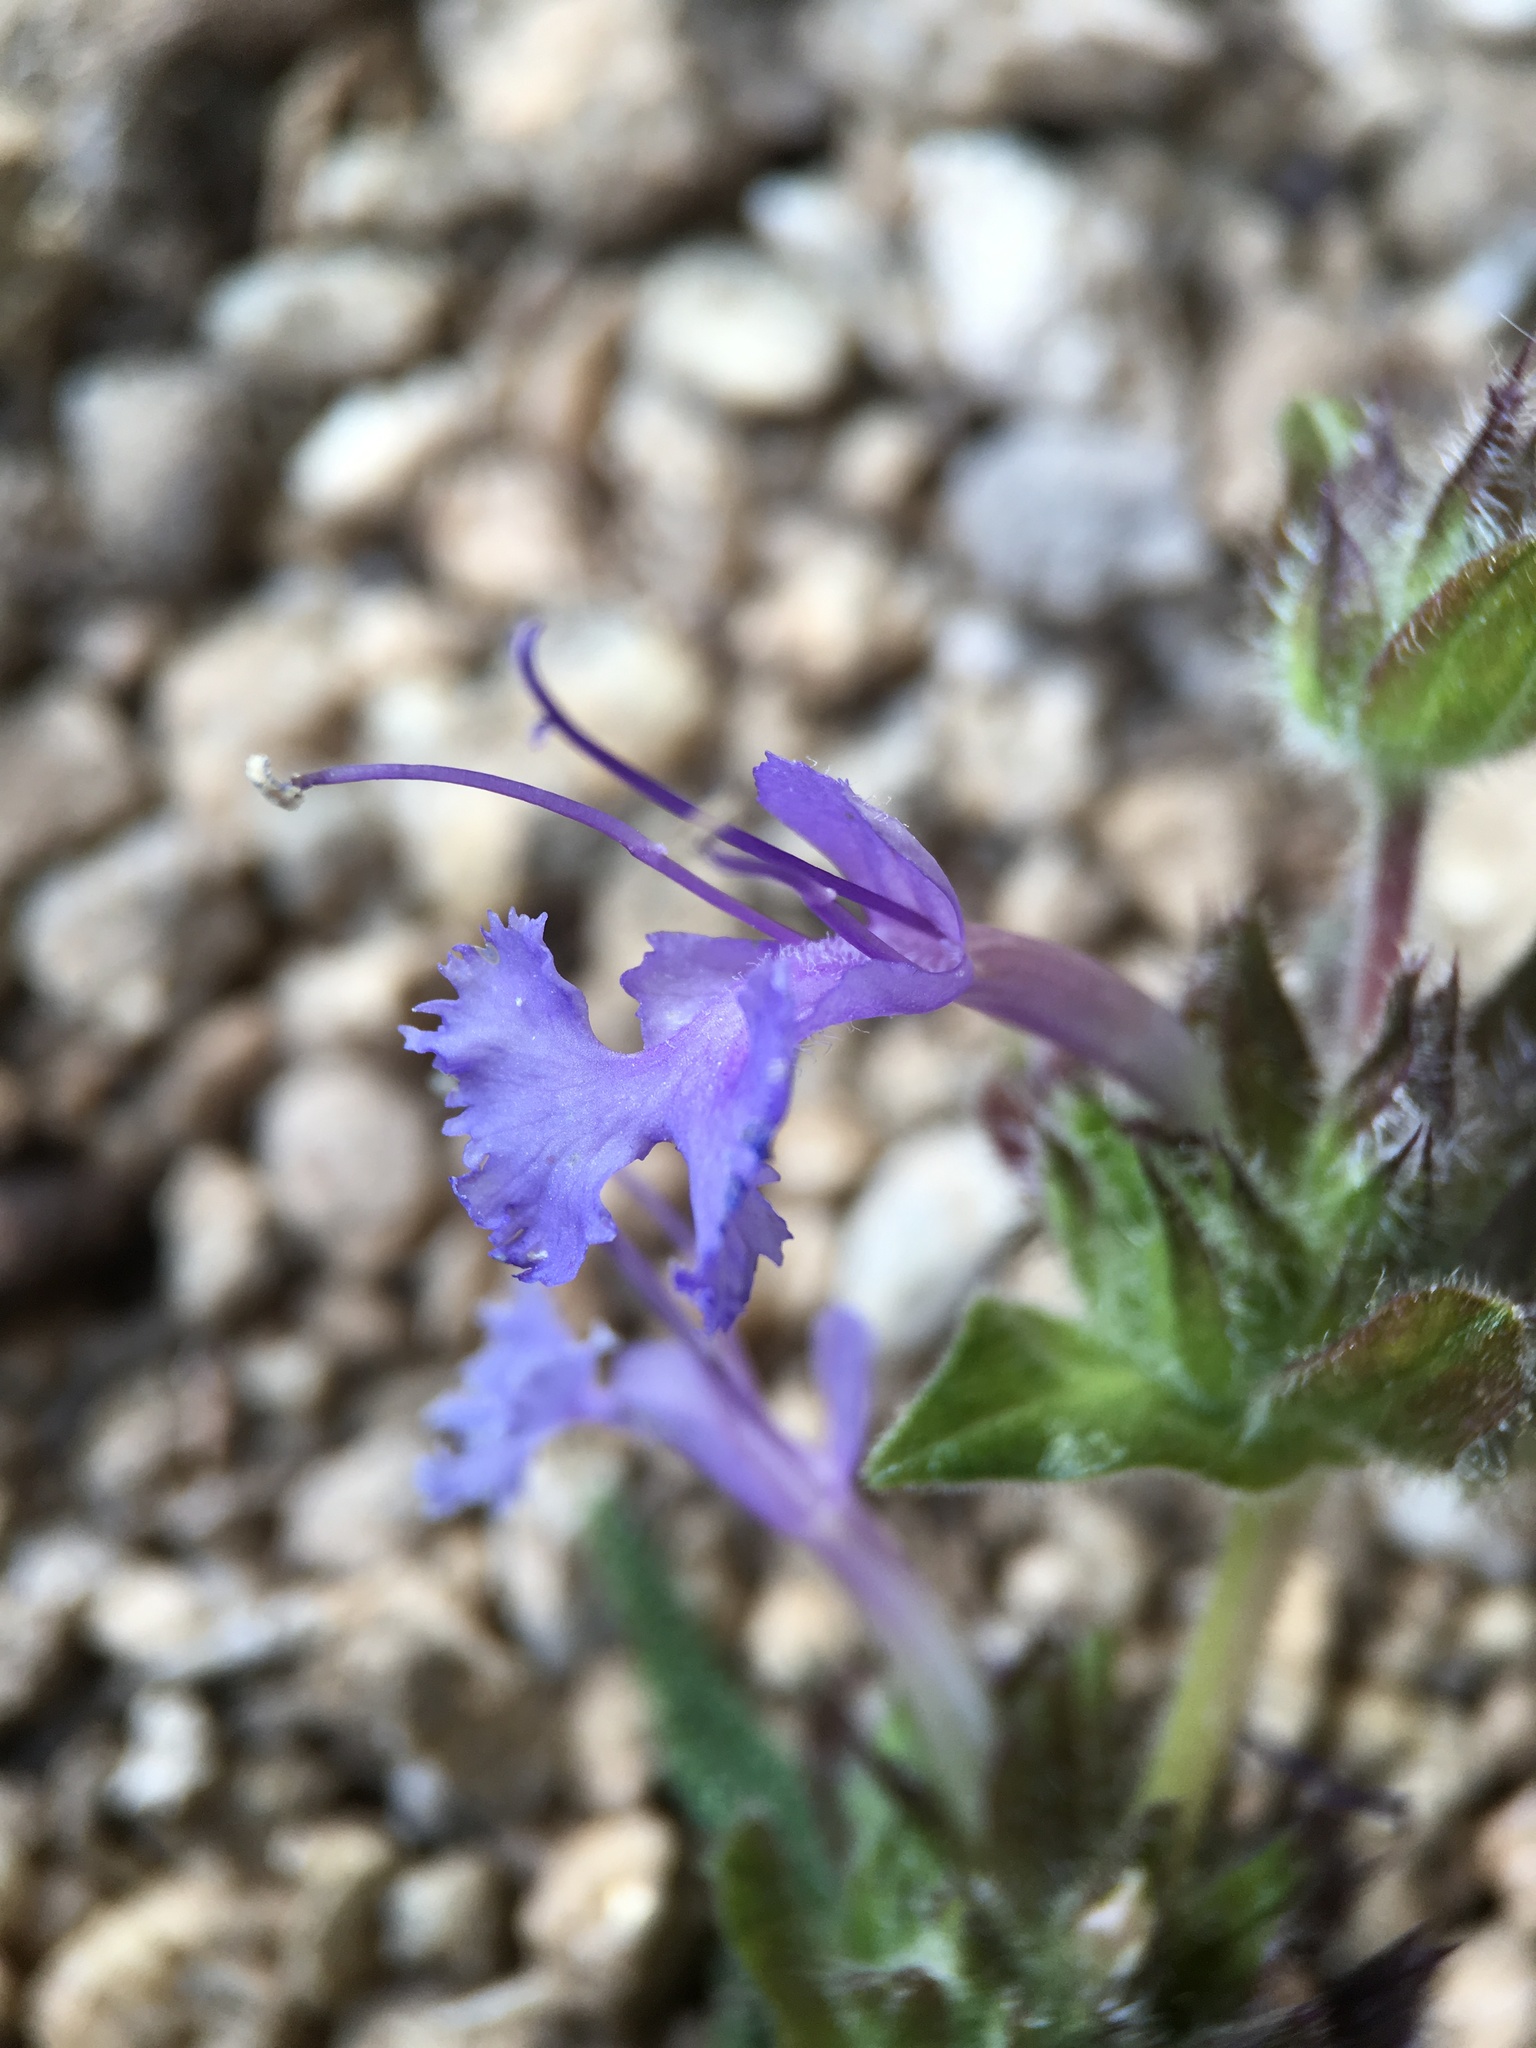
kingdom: Plantae
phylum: Tracheophyta
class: Magnoliopsida
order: Lamiales
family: Lamiaceae
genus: Salvia
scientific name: Salvia eremostachya
